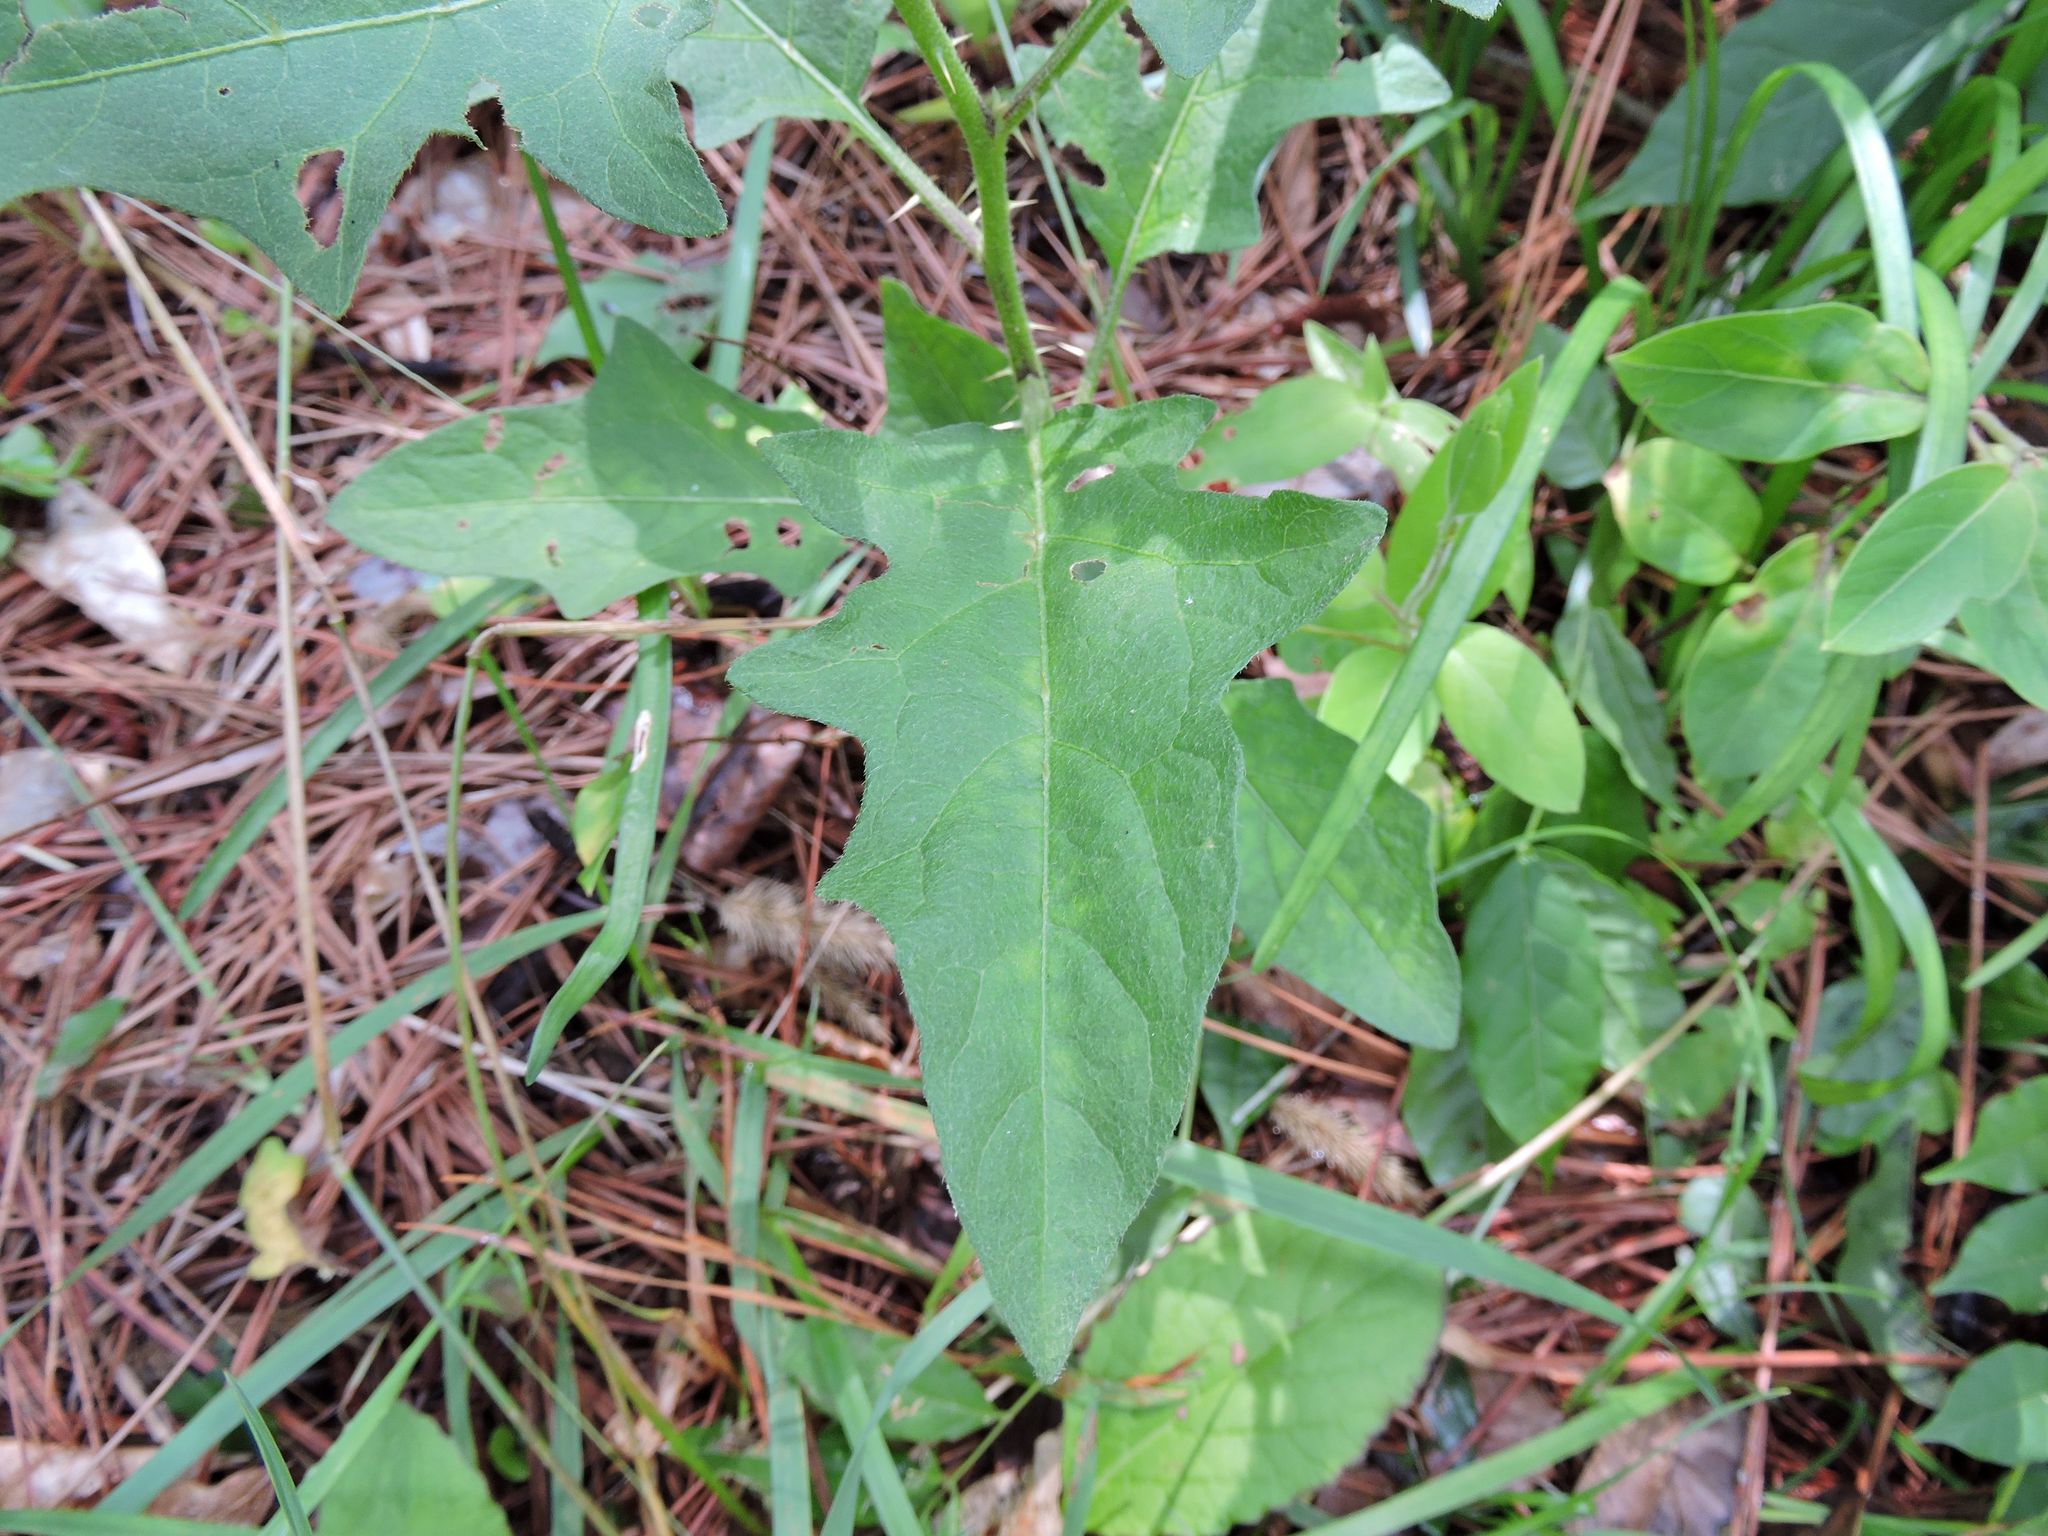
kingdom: Plantae
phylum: Tracheophyta
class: Magnoliopsida
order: Solanales
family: Solanaceae
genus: Solanum
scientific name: Solanum carolinense
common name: Horse-nettle
